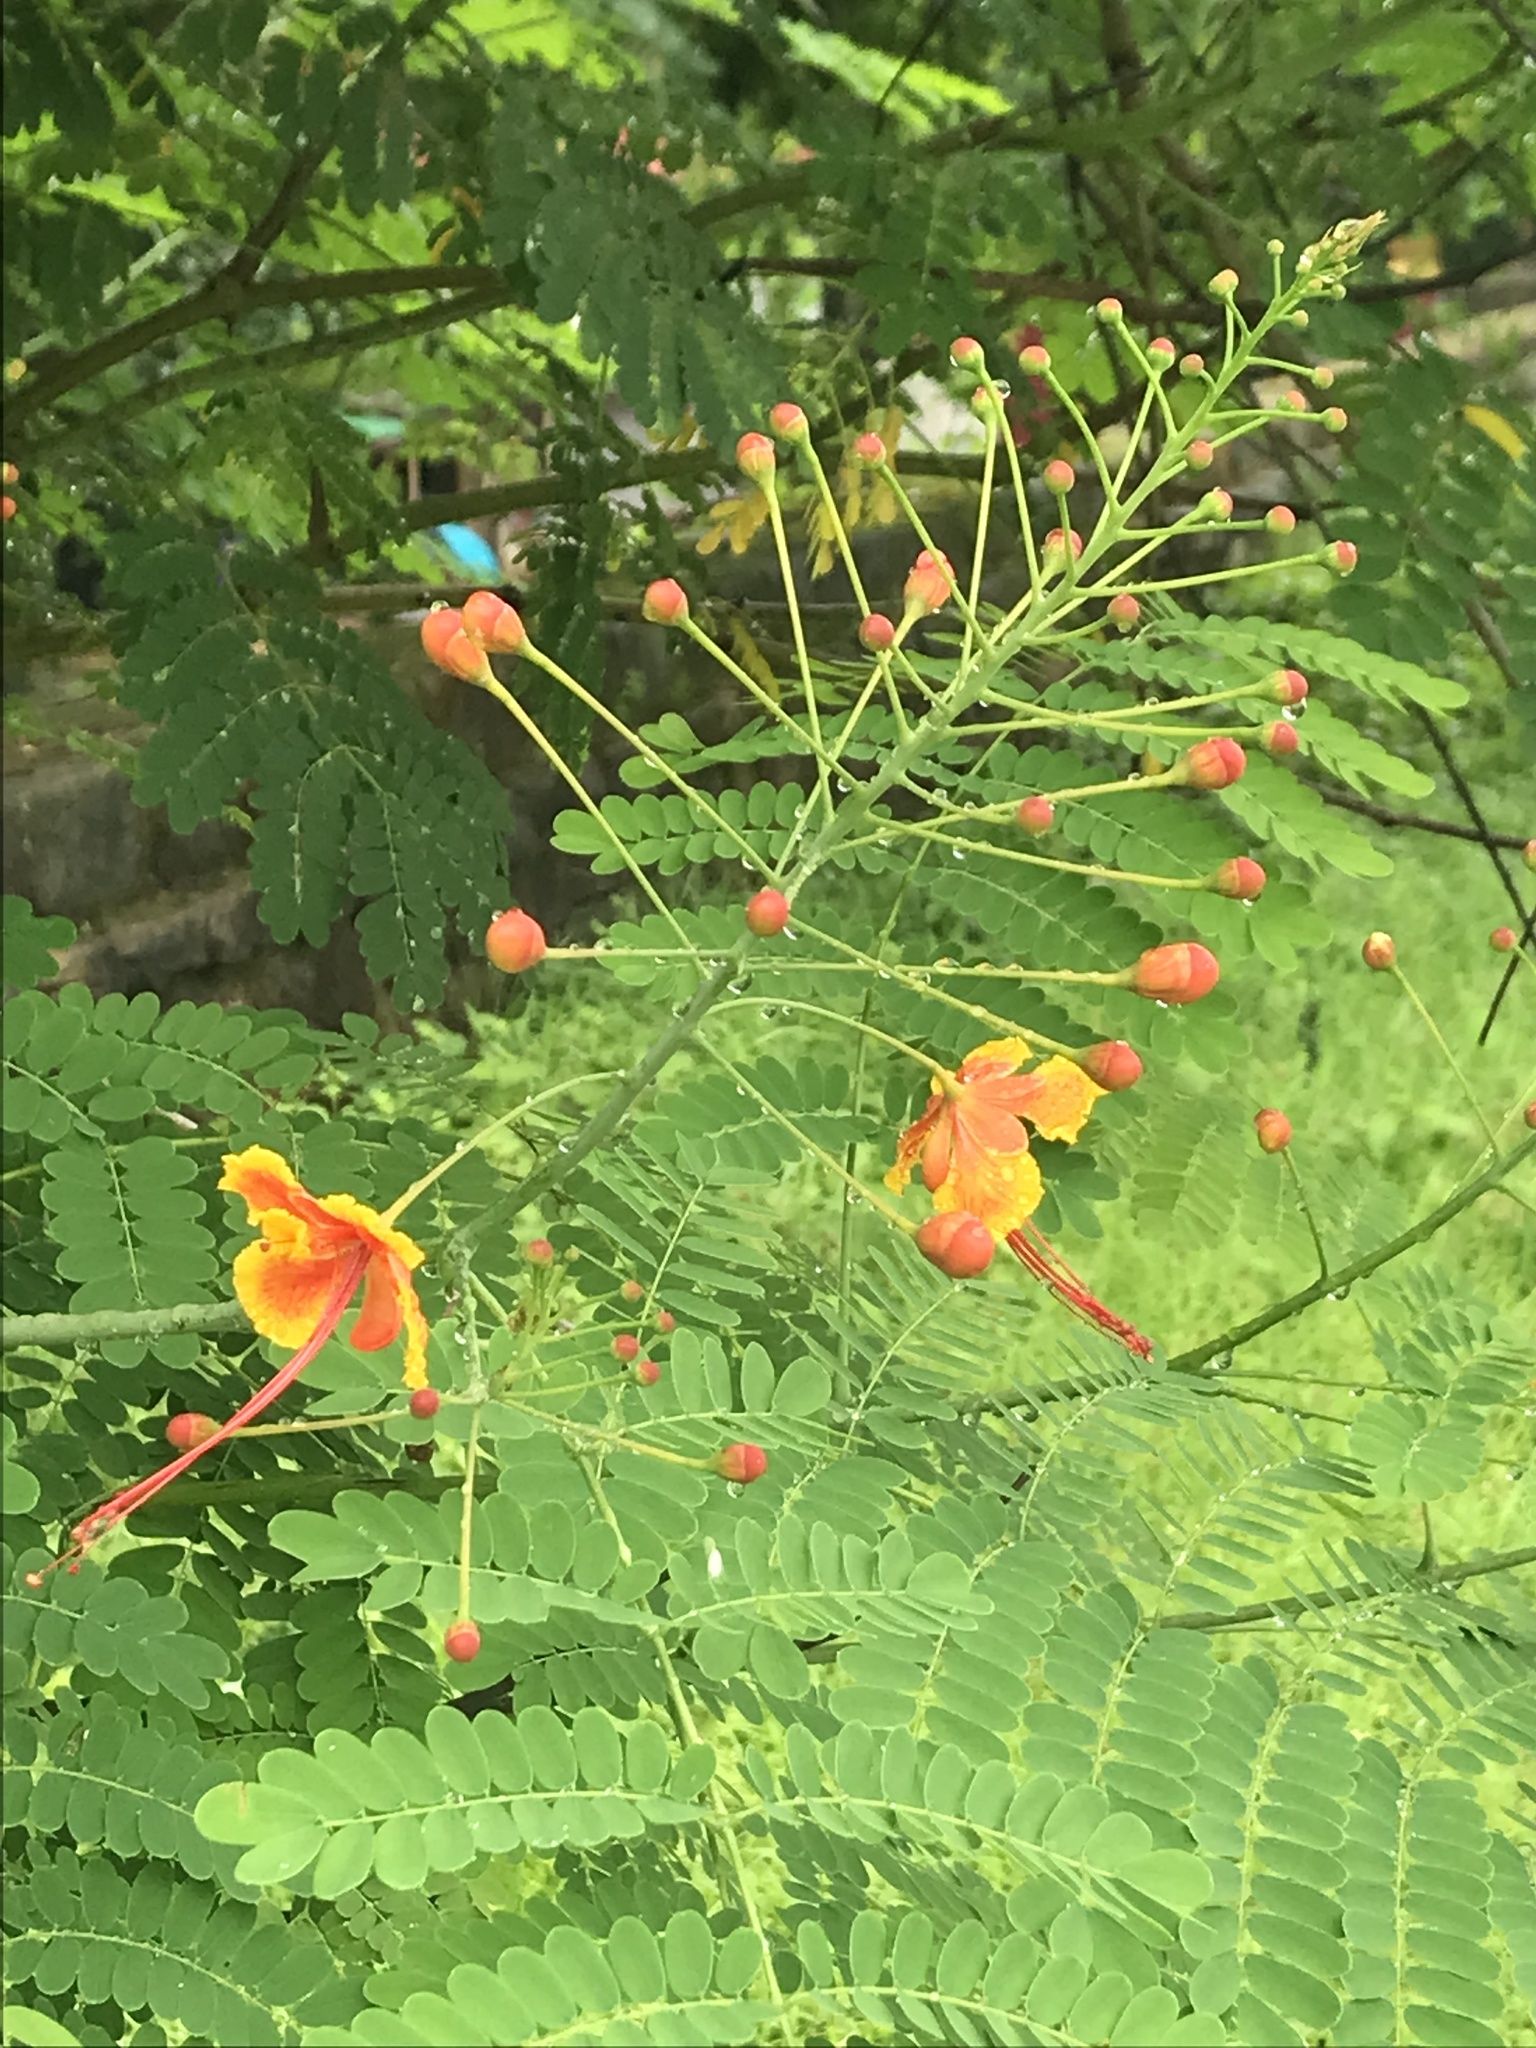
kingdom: Plantae
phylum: Tracheophyta
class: Magnoliopsida
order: Fabales
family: Fabaceae
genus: Caesalpinia
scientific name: Caesalpinia pulcherrima
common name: Pride-of-barbados
